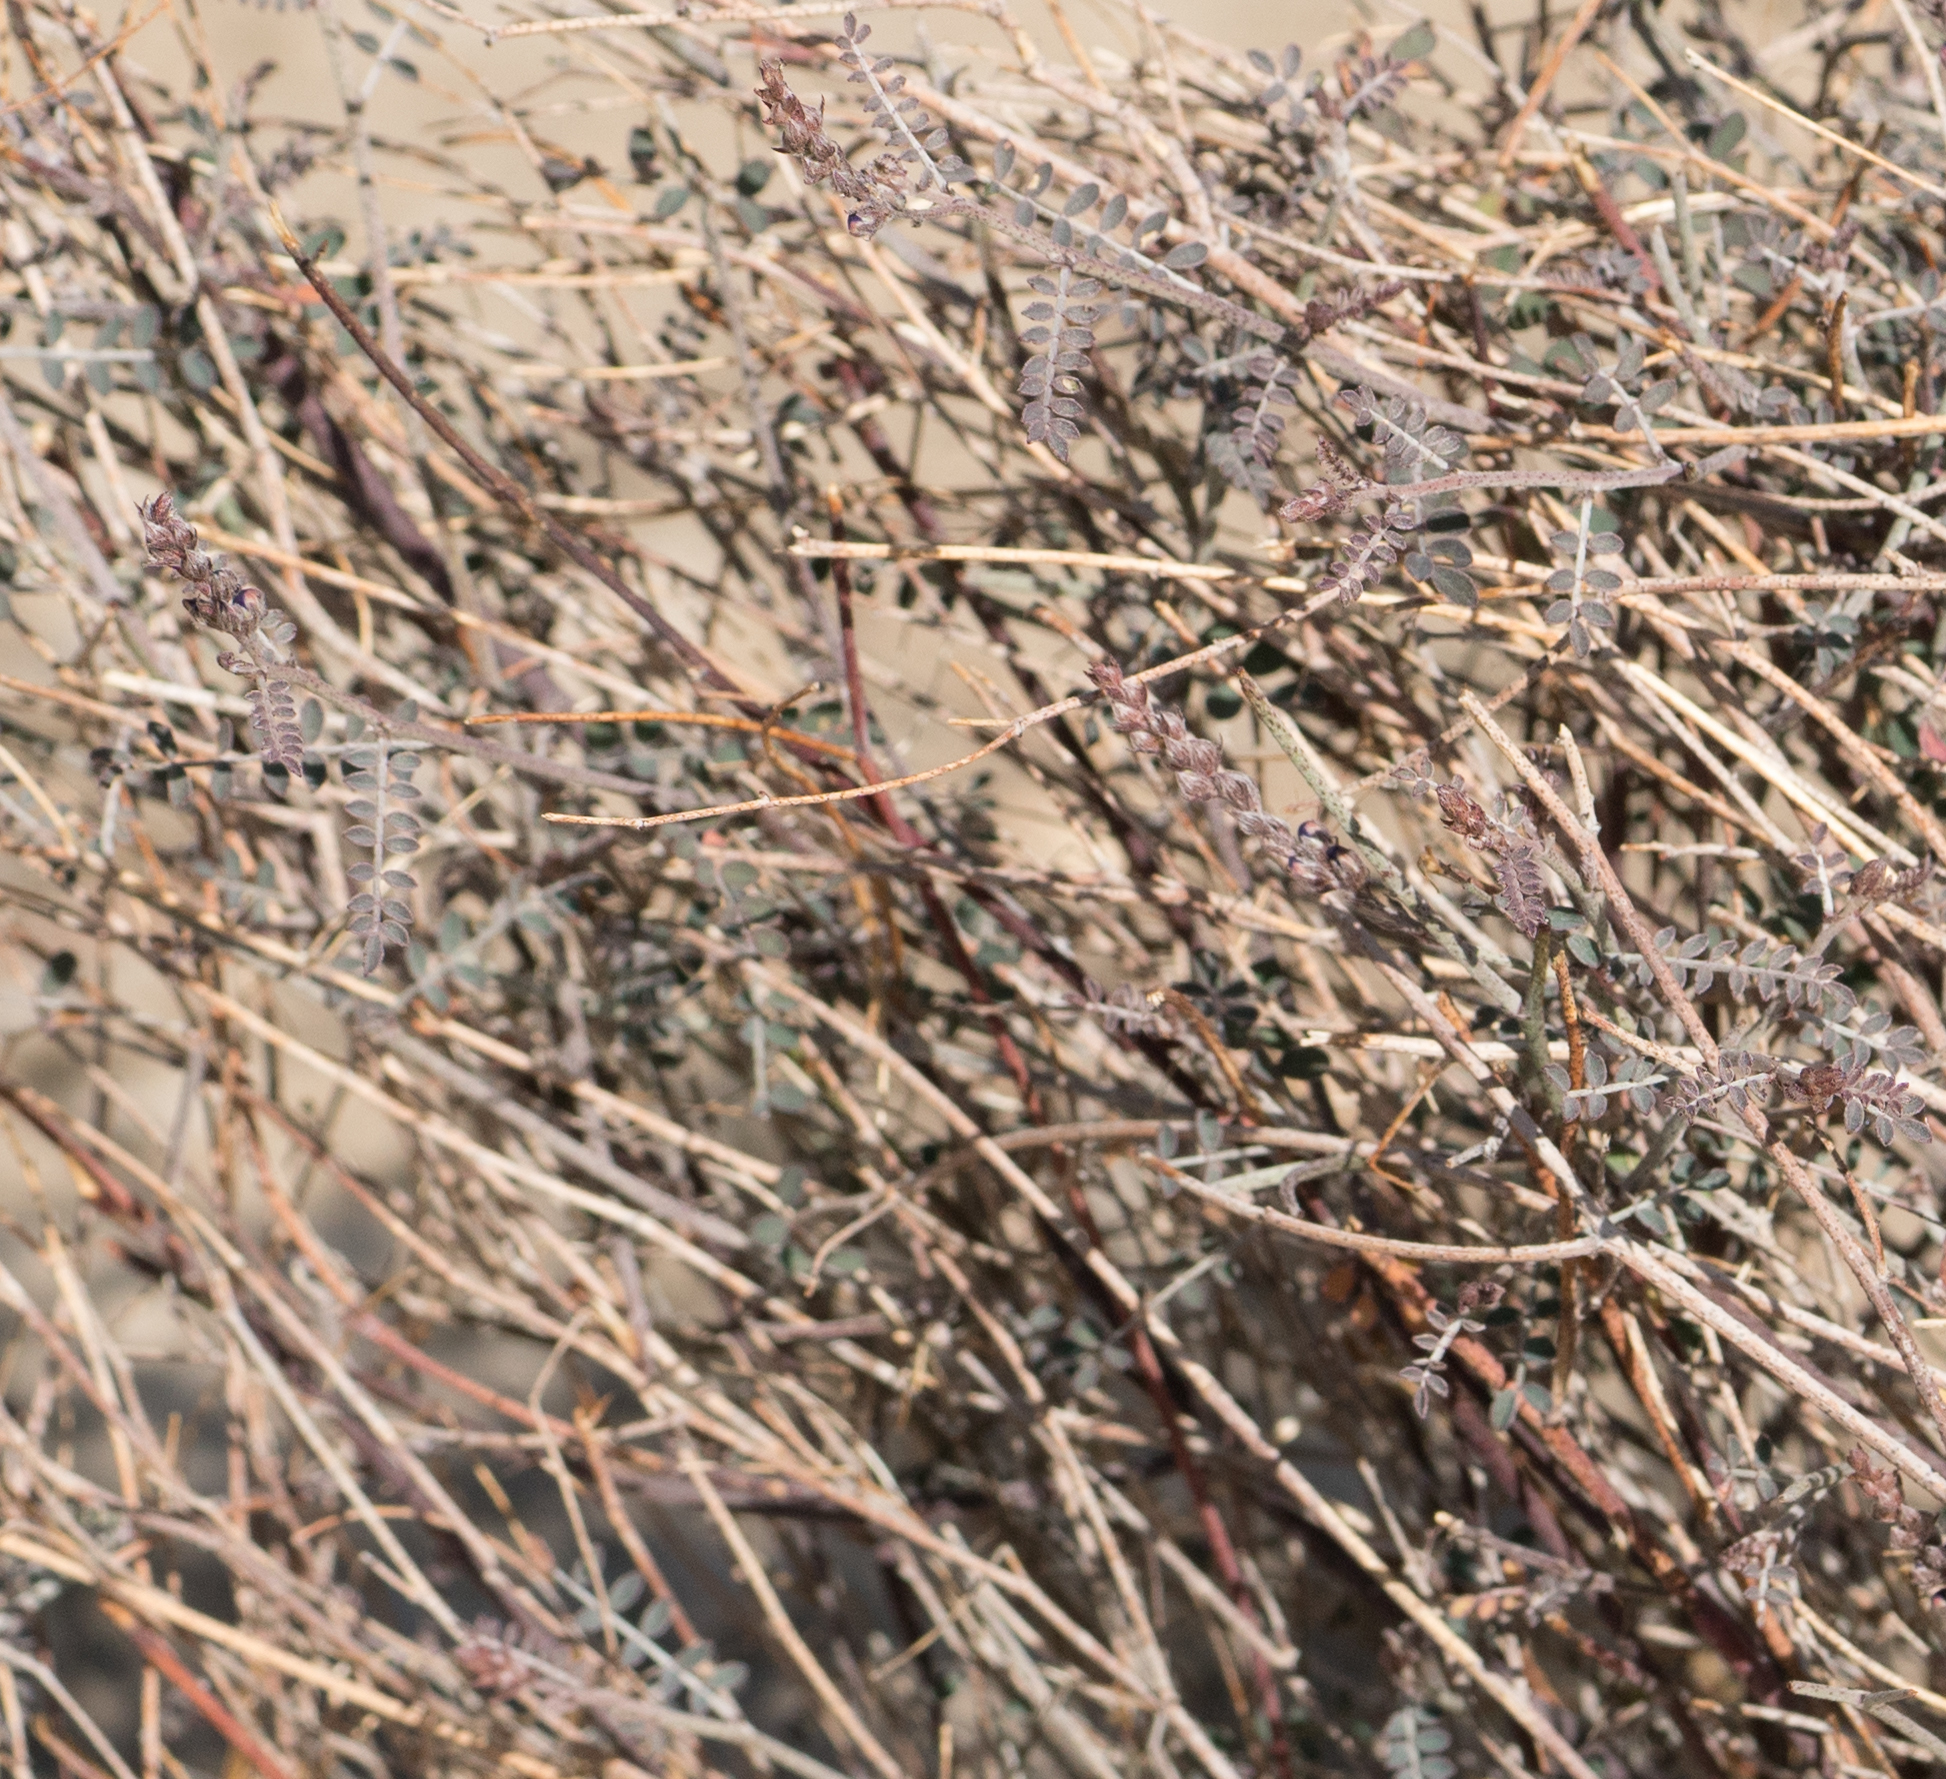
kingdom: Plantae
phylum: Tracheophyta
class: Magnoliopsida
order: Fabales
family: Fabaceae
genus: Marina
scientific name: Marina parryi
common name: Parry's marina
